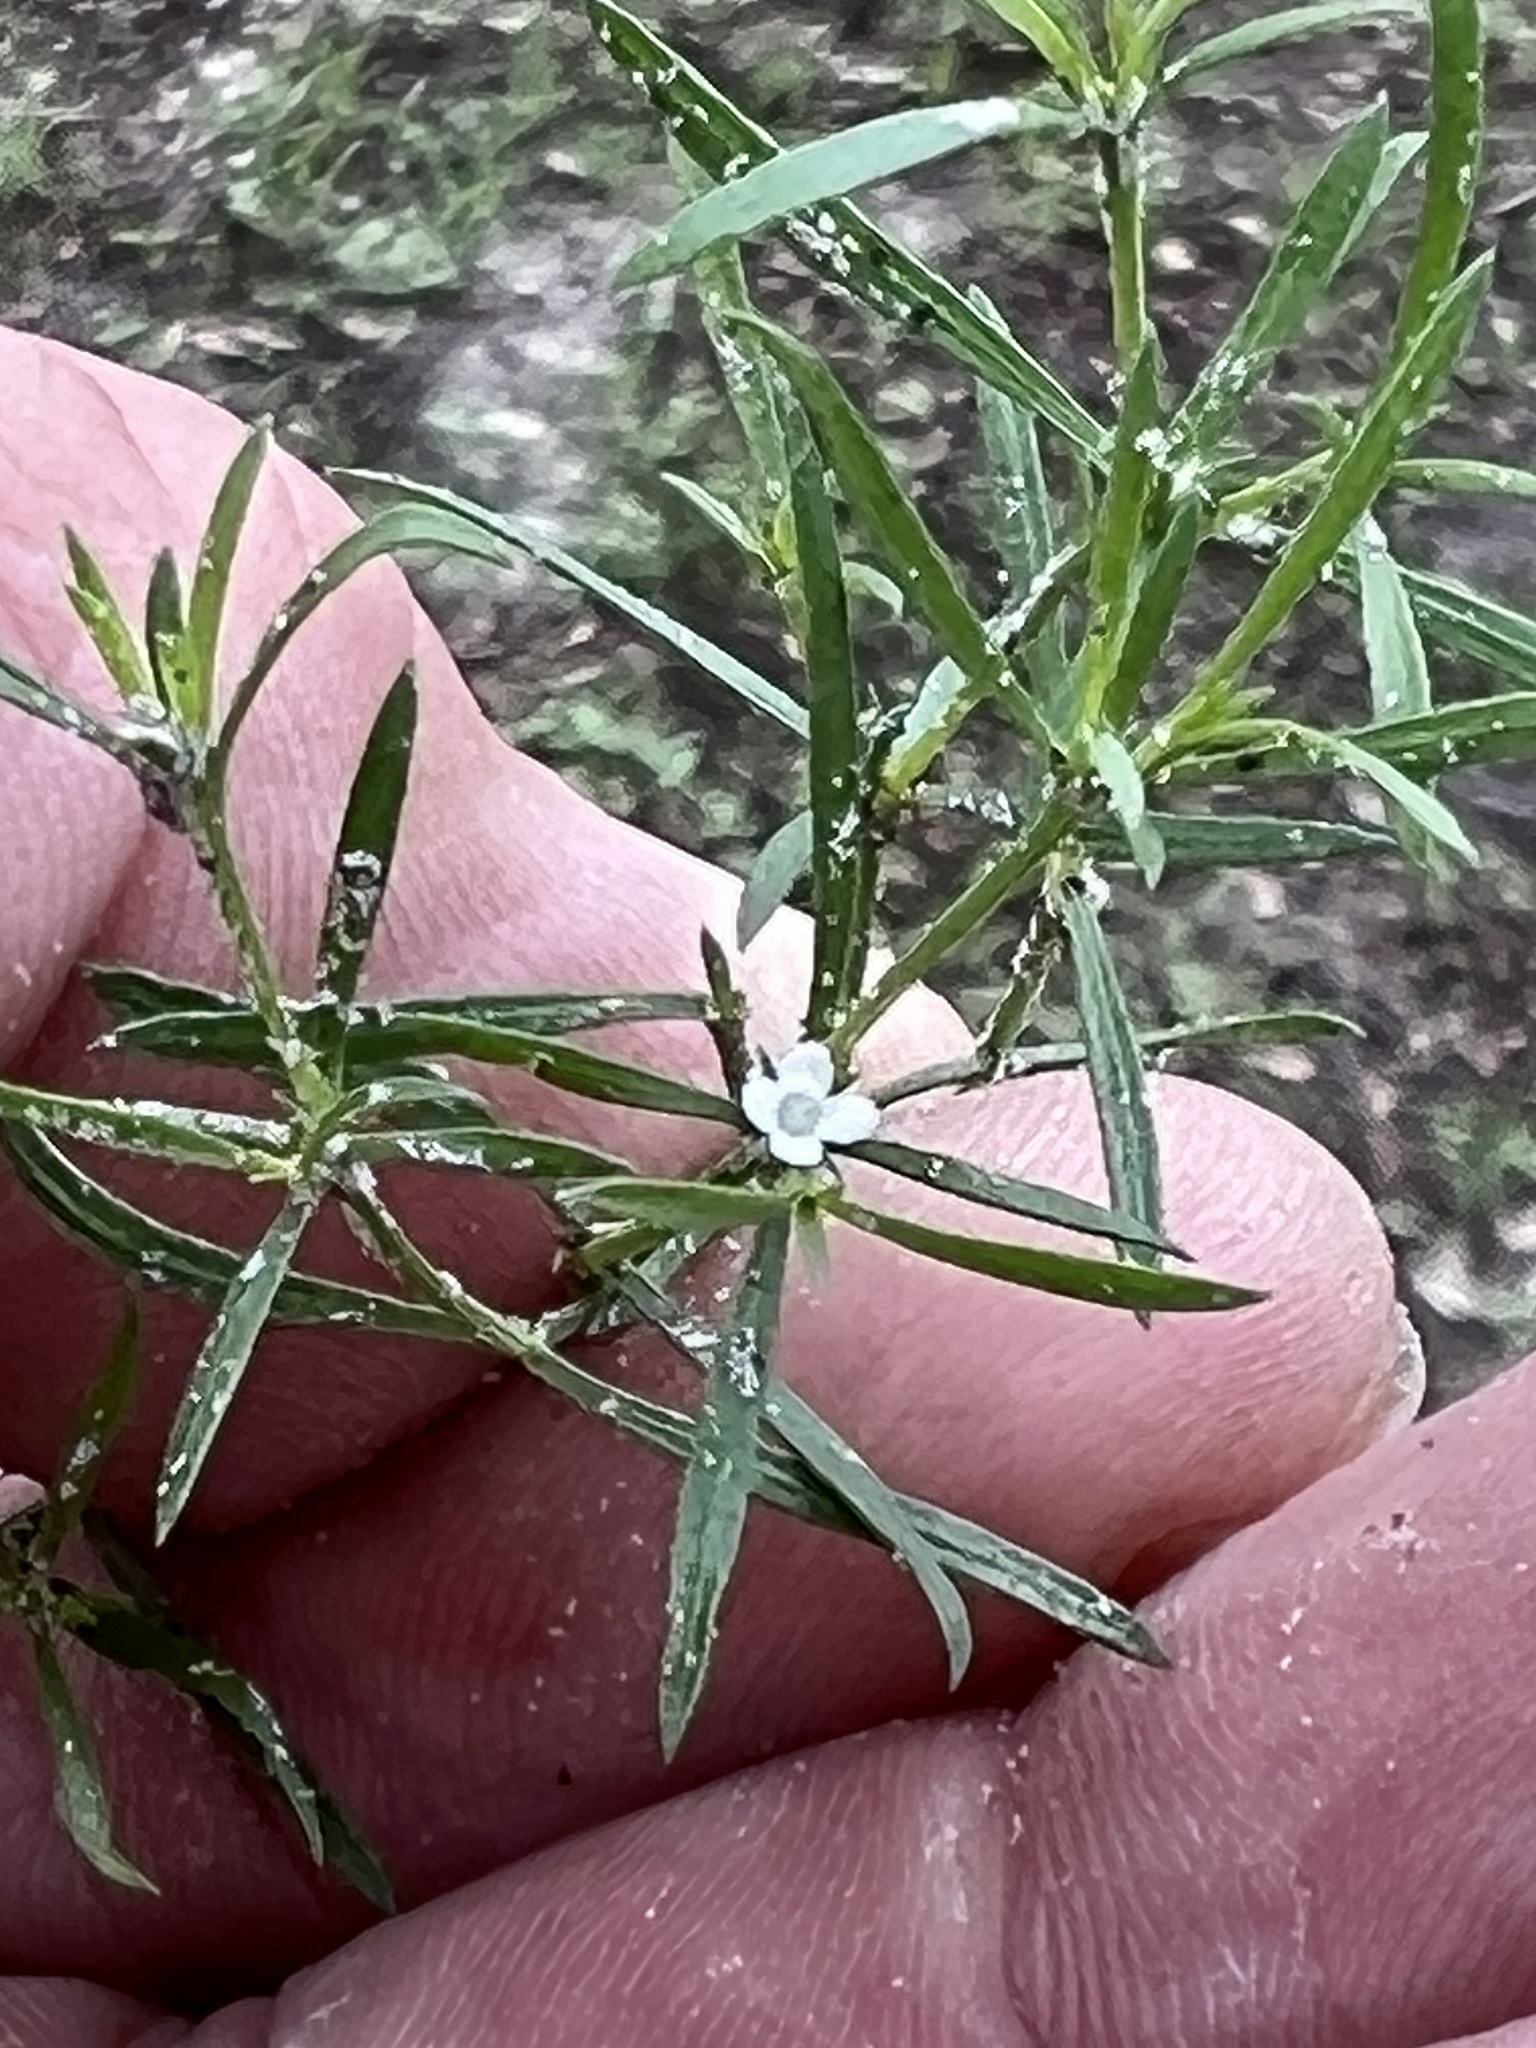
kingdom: Plantae
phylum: Tracheophyta
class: Magnoliopsida
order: Lamiales
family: Tetrachondraceae
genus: Polypremum
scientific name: Polypremum procumbens
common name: Juniper-leaf
